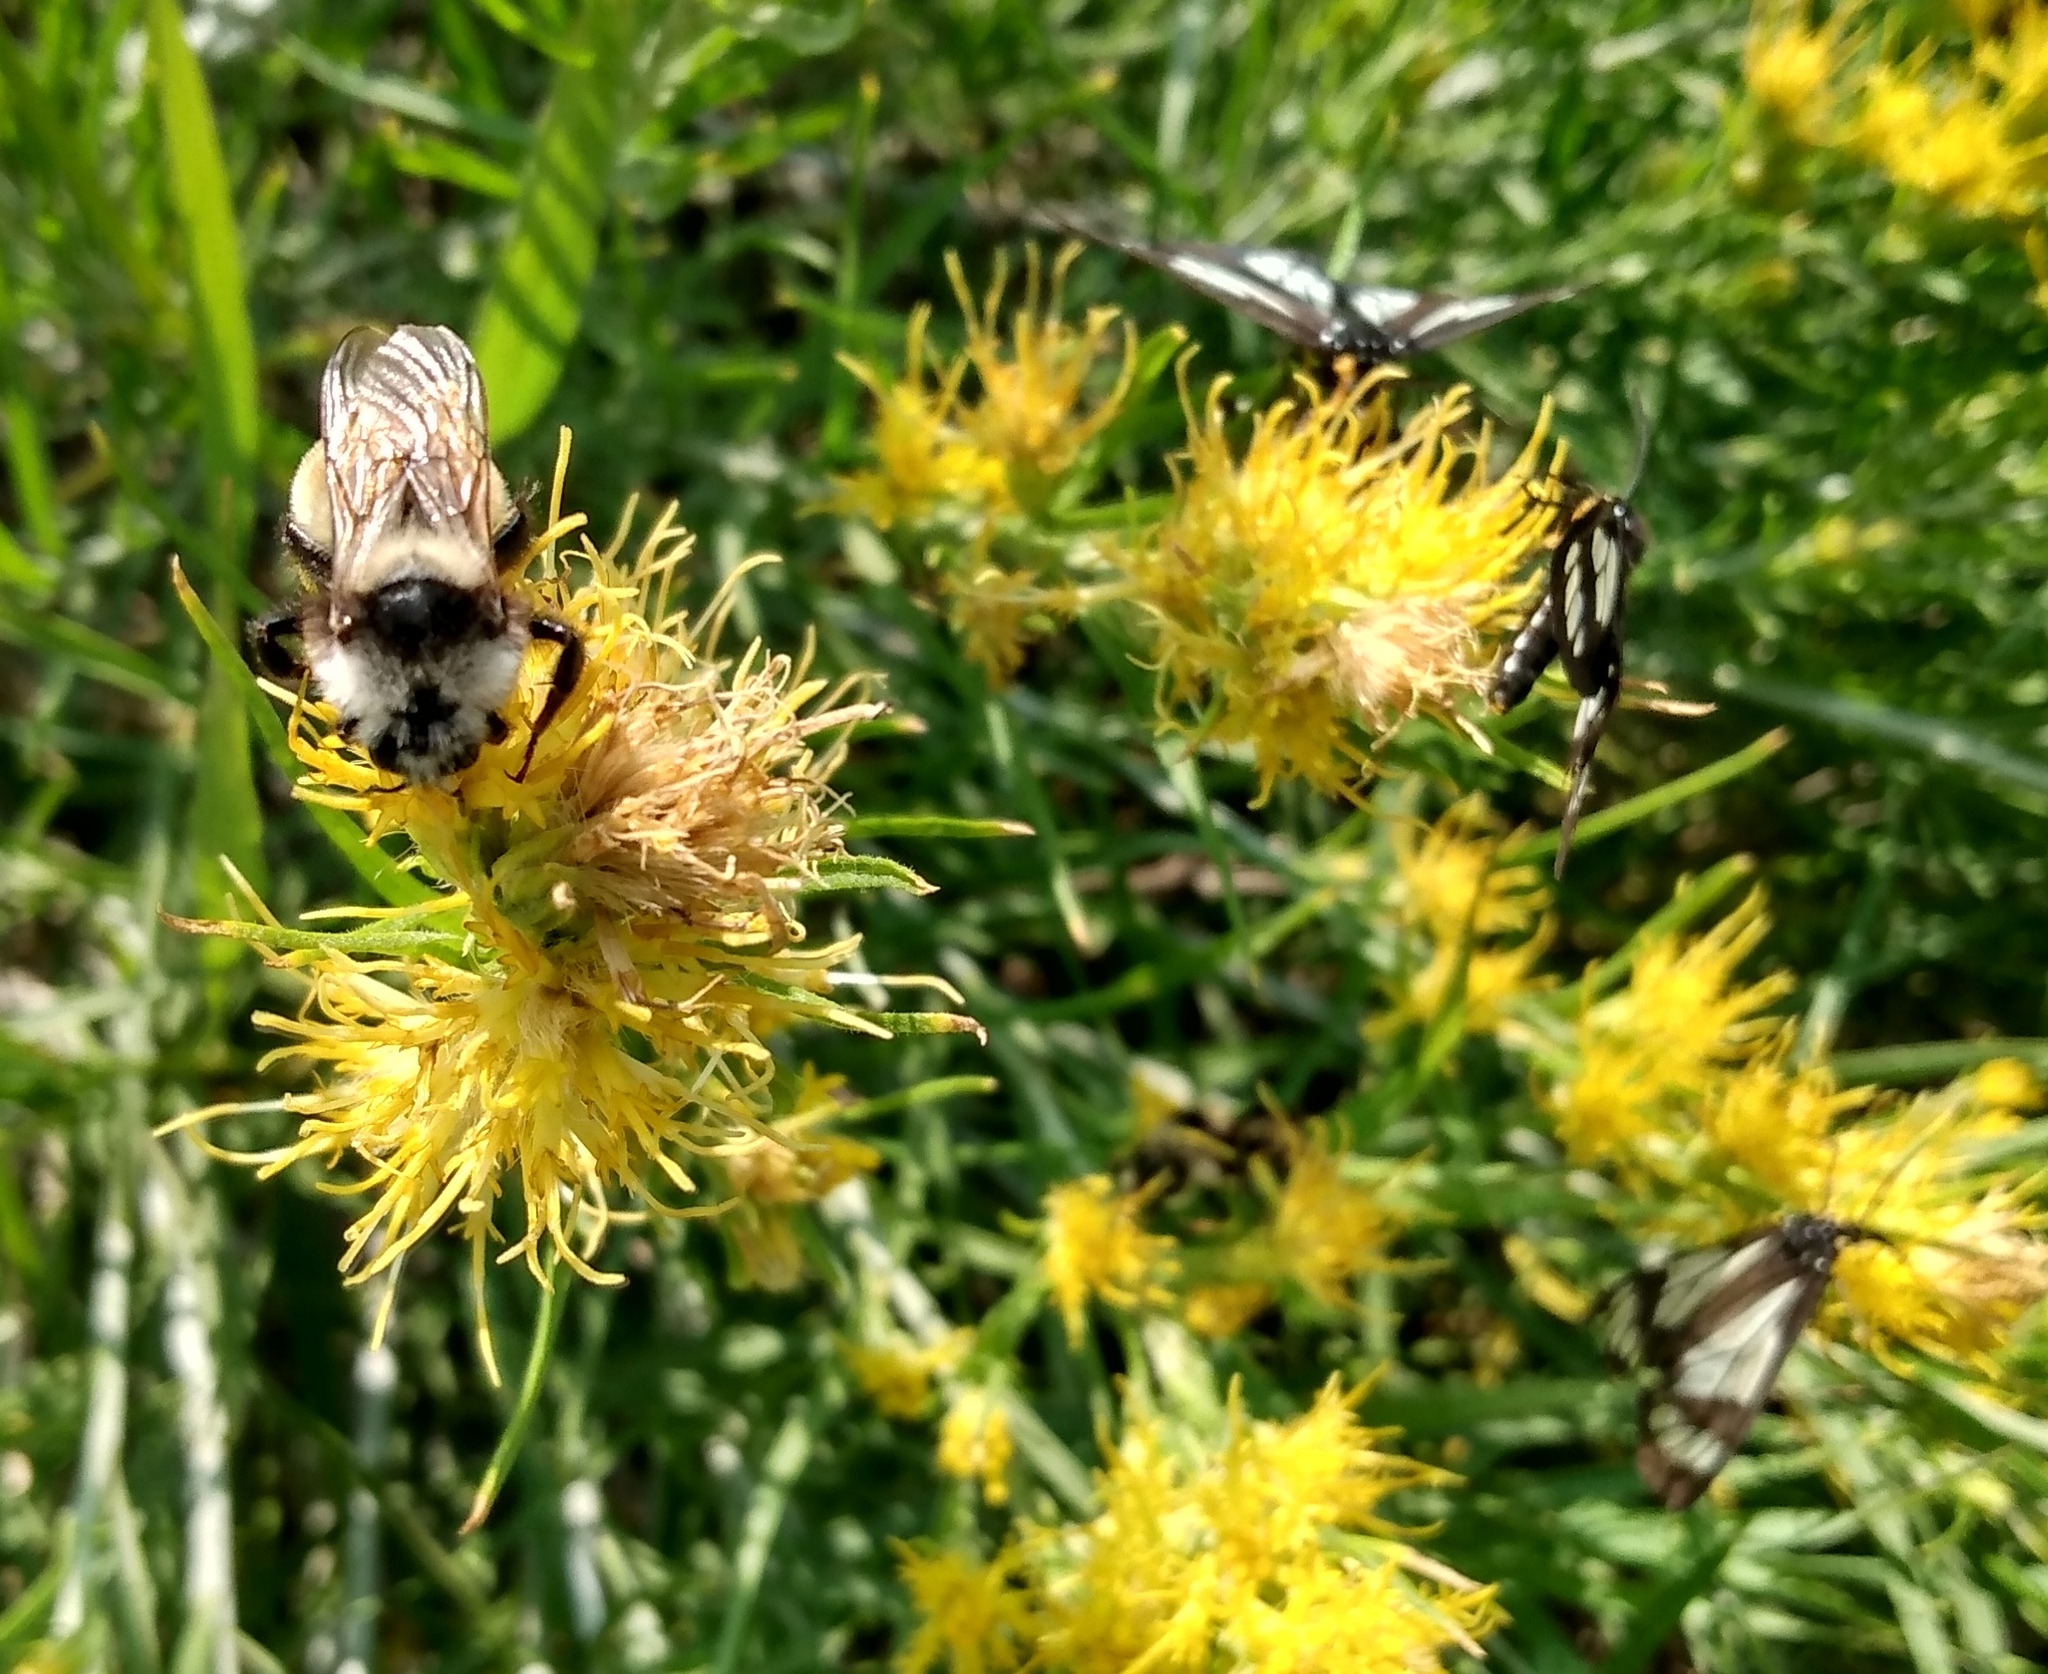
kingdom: Animalia
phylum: Arthropoda
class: Insecta
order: Hymenoptera
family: Apidae
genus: Bombus
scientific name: Bombus appositus
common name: White-shouldered bumble bee
